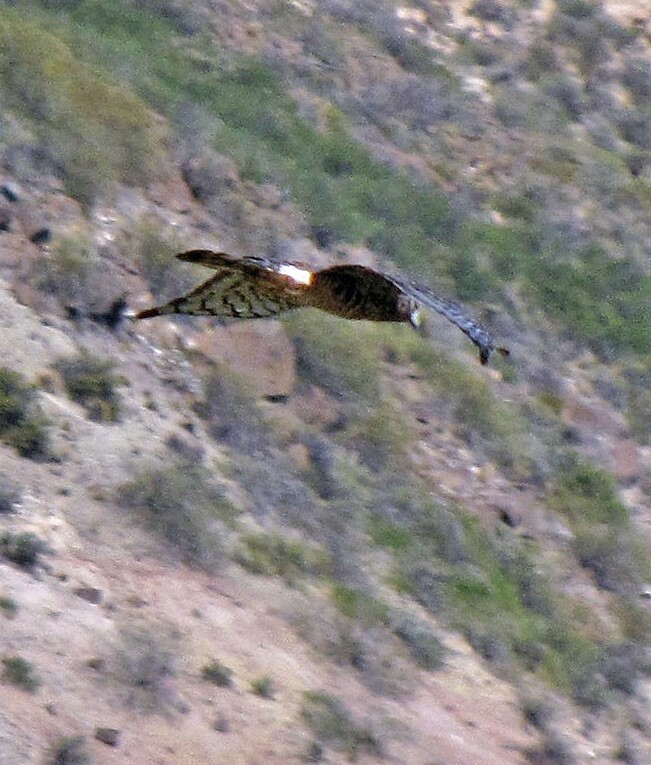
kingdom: Animalia
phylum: Chordata
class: Aves
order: Accipitriformes
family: Accipitridae
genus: Circus
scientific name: Circus cinereus
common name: Cinereous harrier
